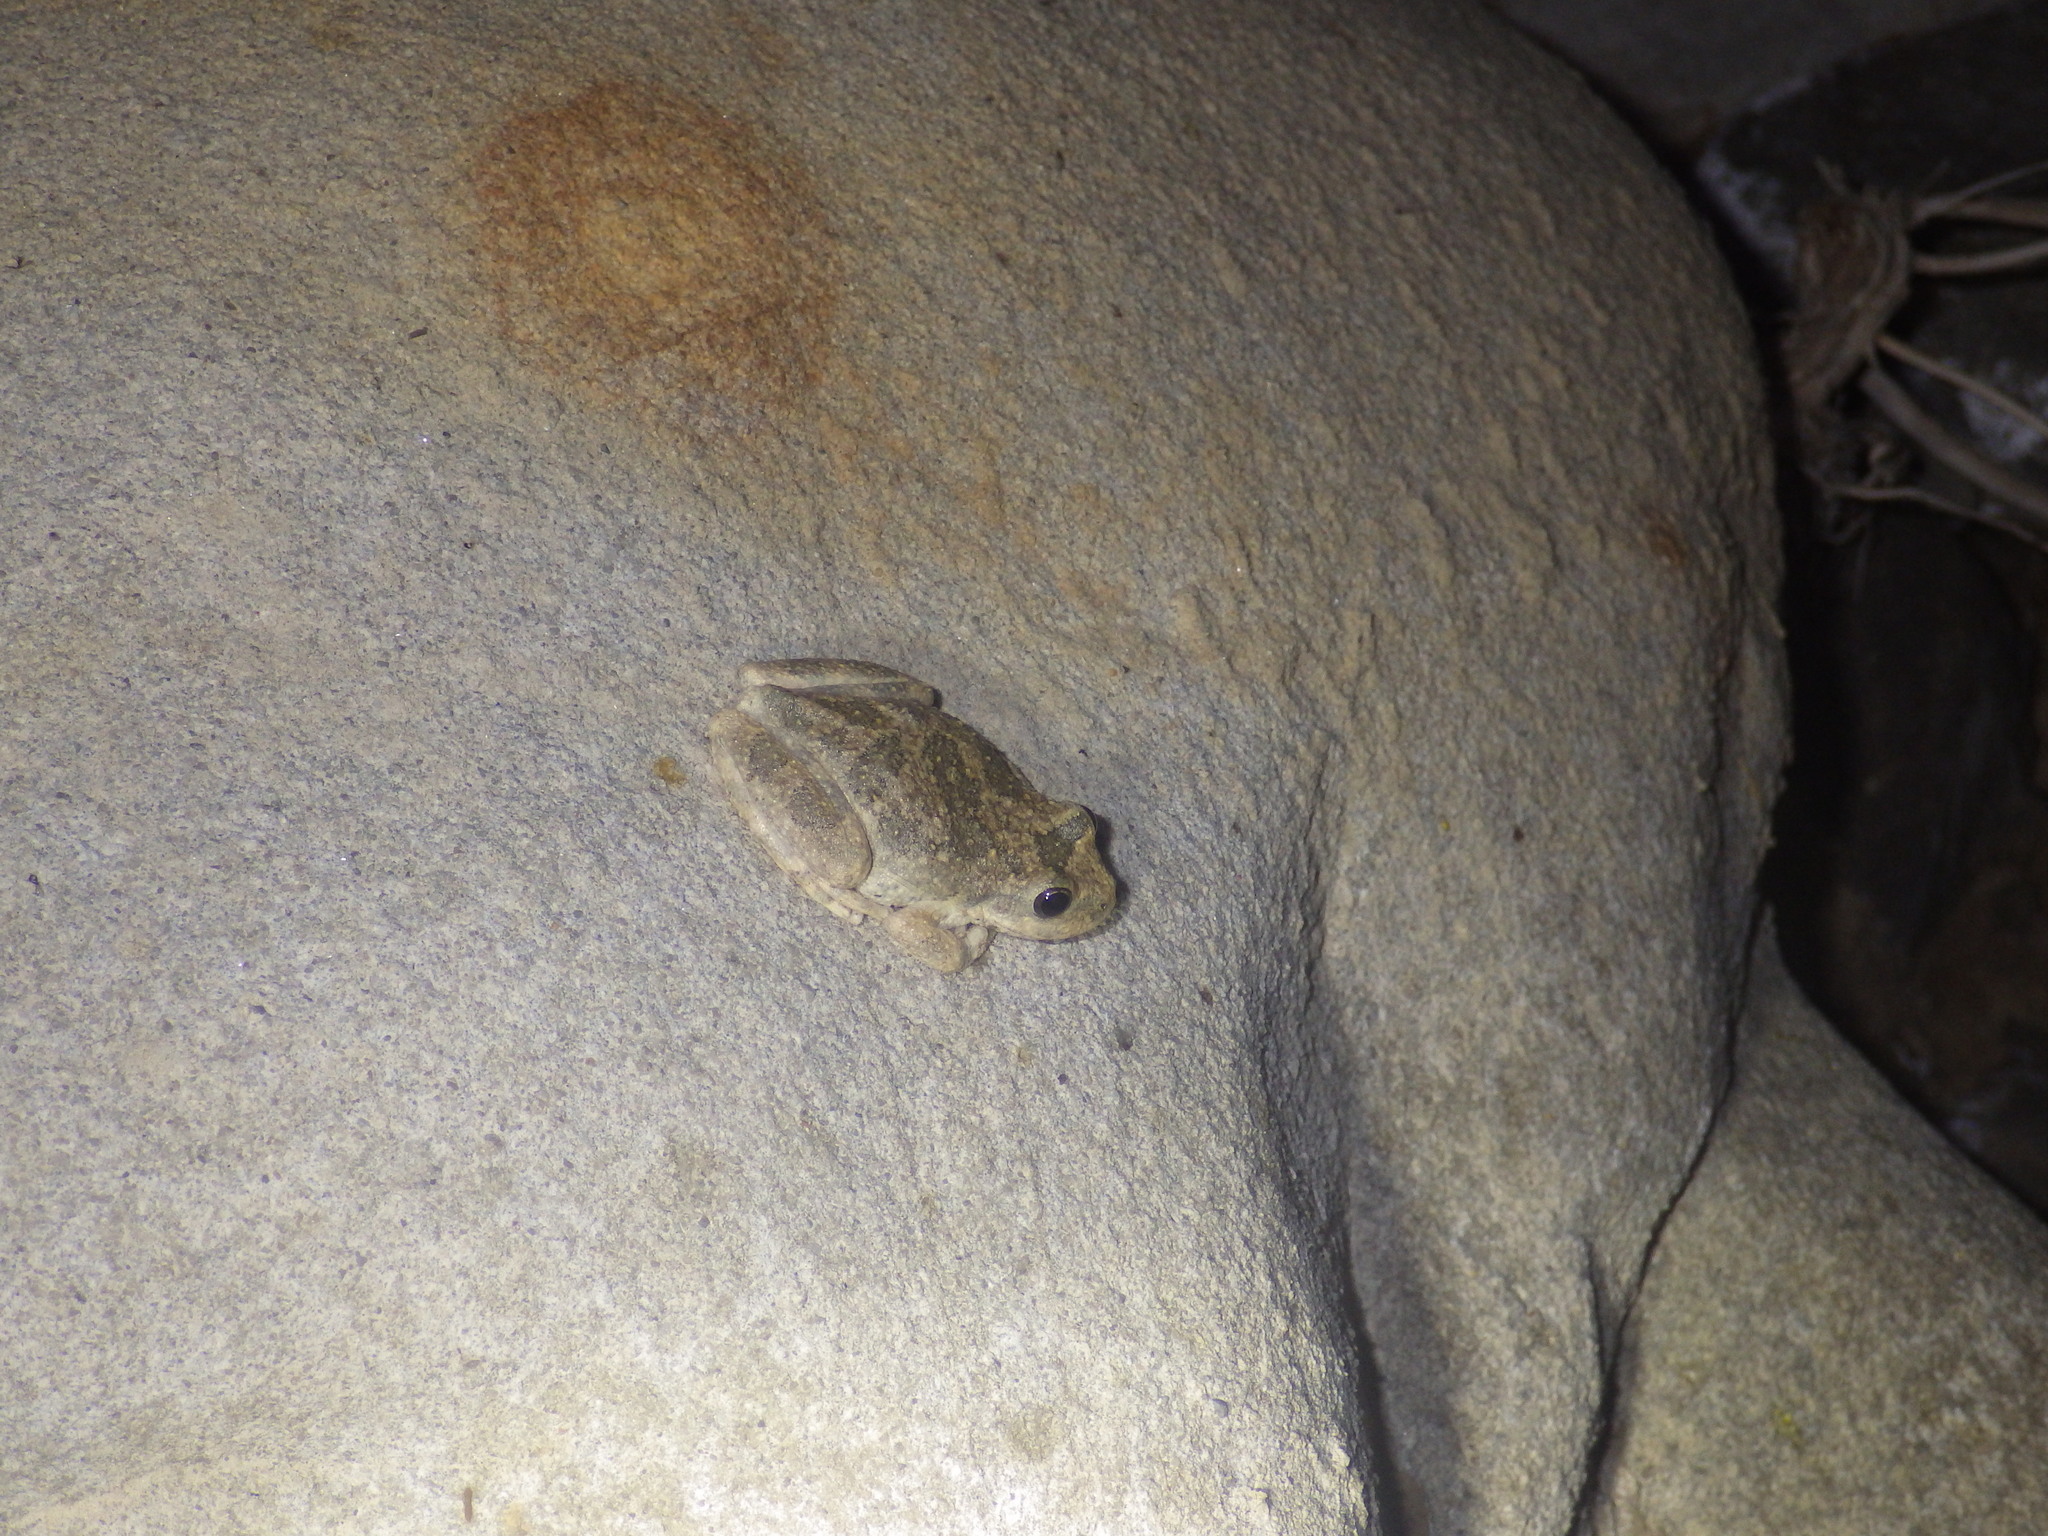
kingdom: Animalia
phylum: Chordata
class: Amphibia
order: Anura
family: Hylidae
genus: Pseudacris
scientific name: Pseudacris cadaverina
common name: California chorus frog
